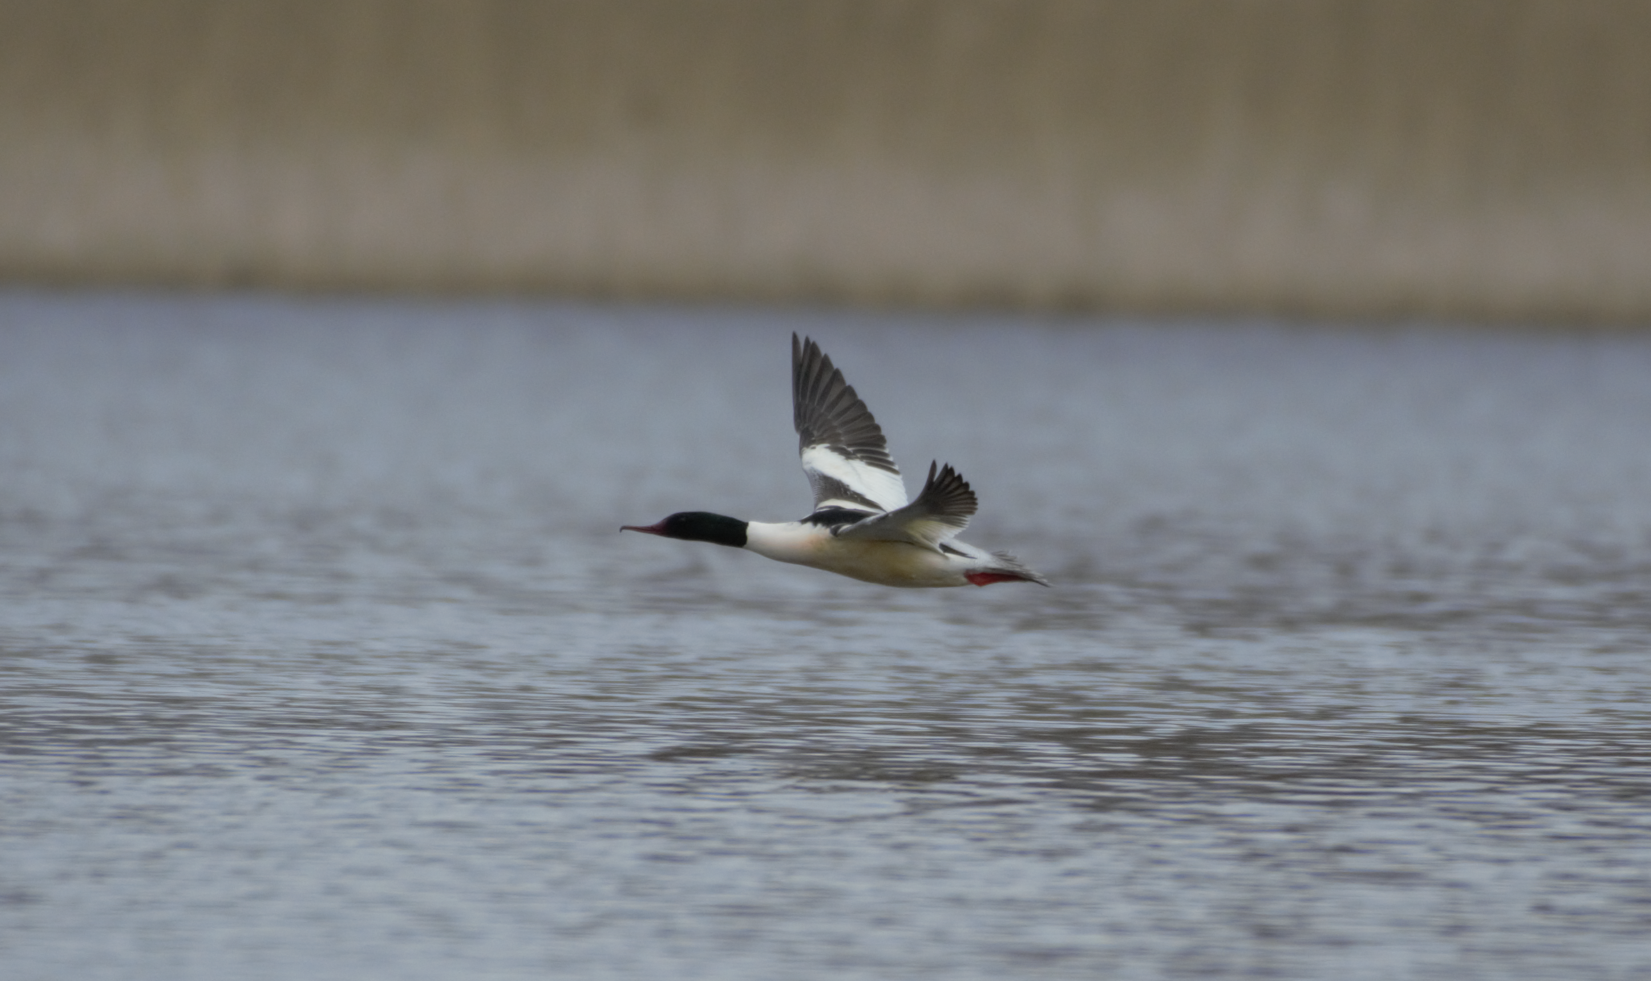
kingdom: Animalia
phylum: Chordata
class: Aves
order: Anseriformes
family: Anatidae
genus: Mergus
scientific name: Mergus merganser
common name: Common merganser
